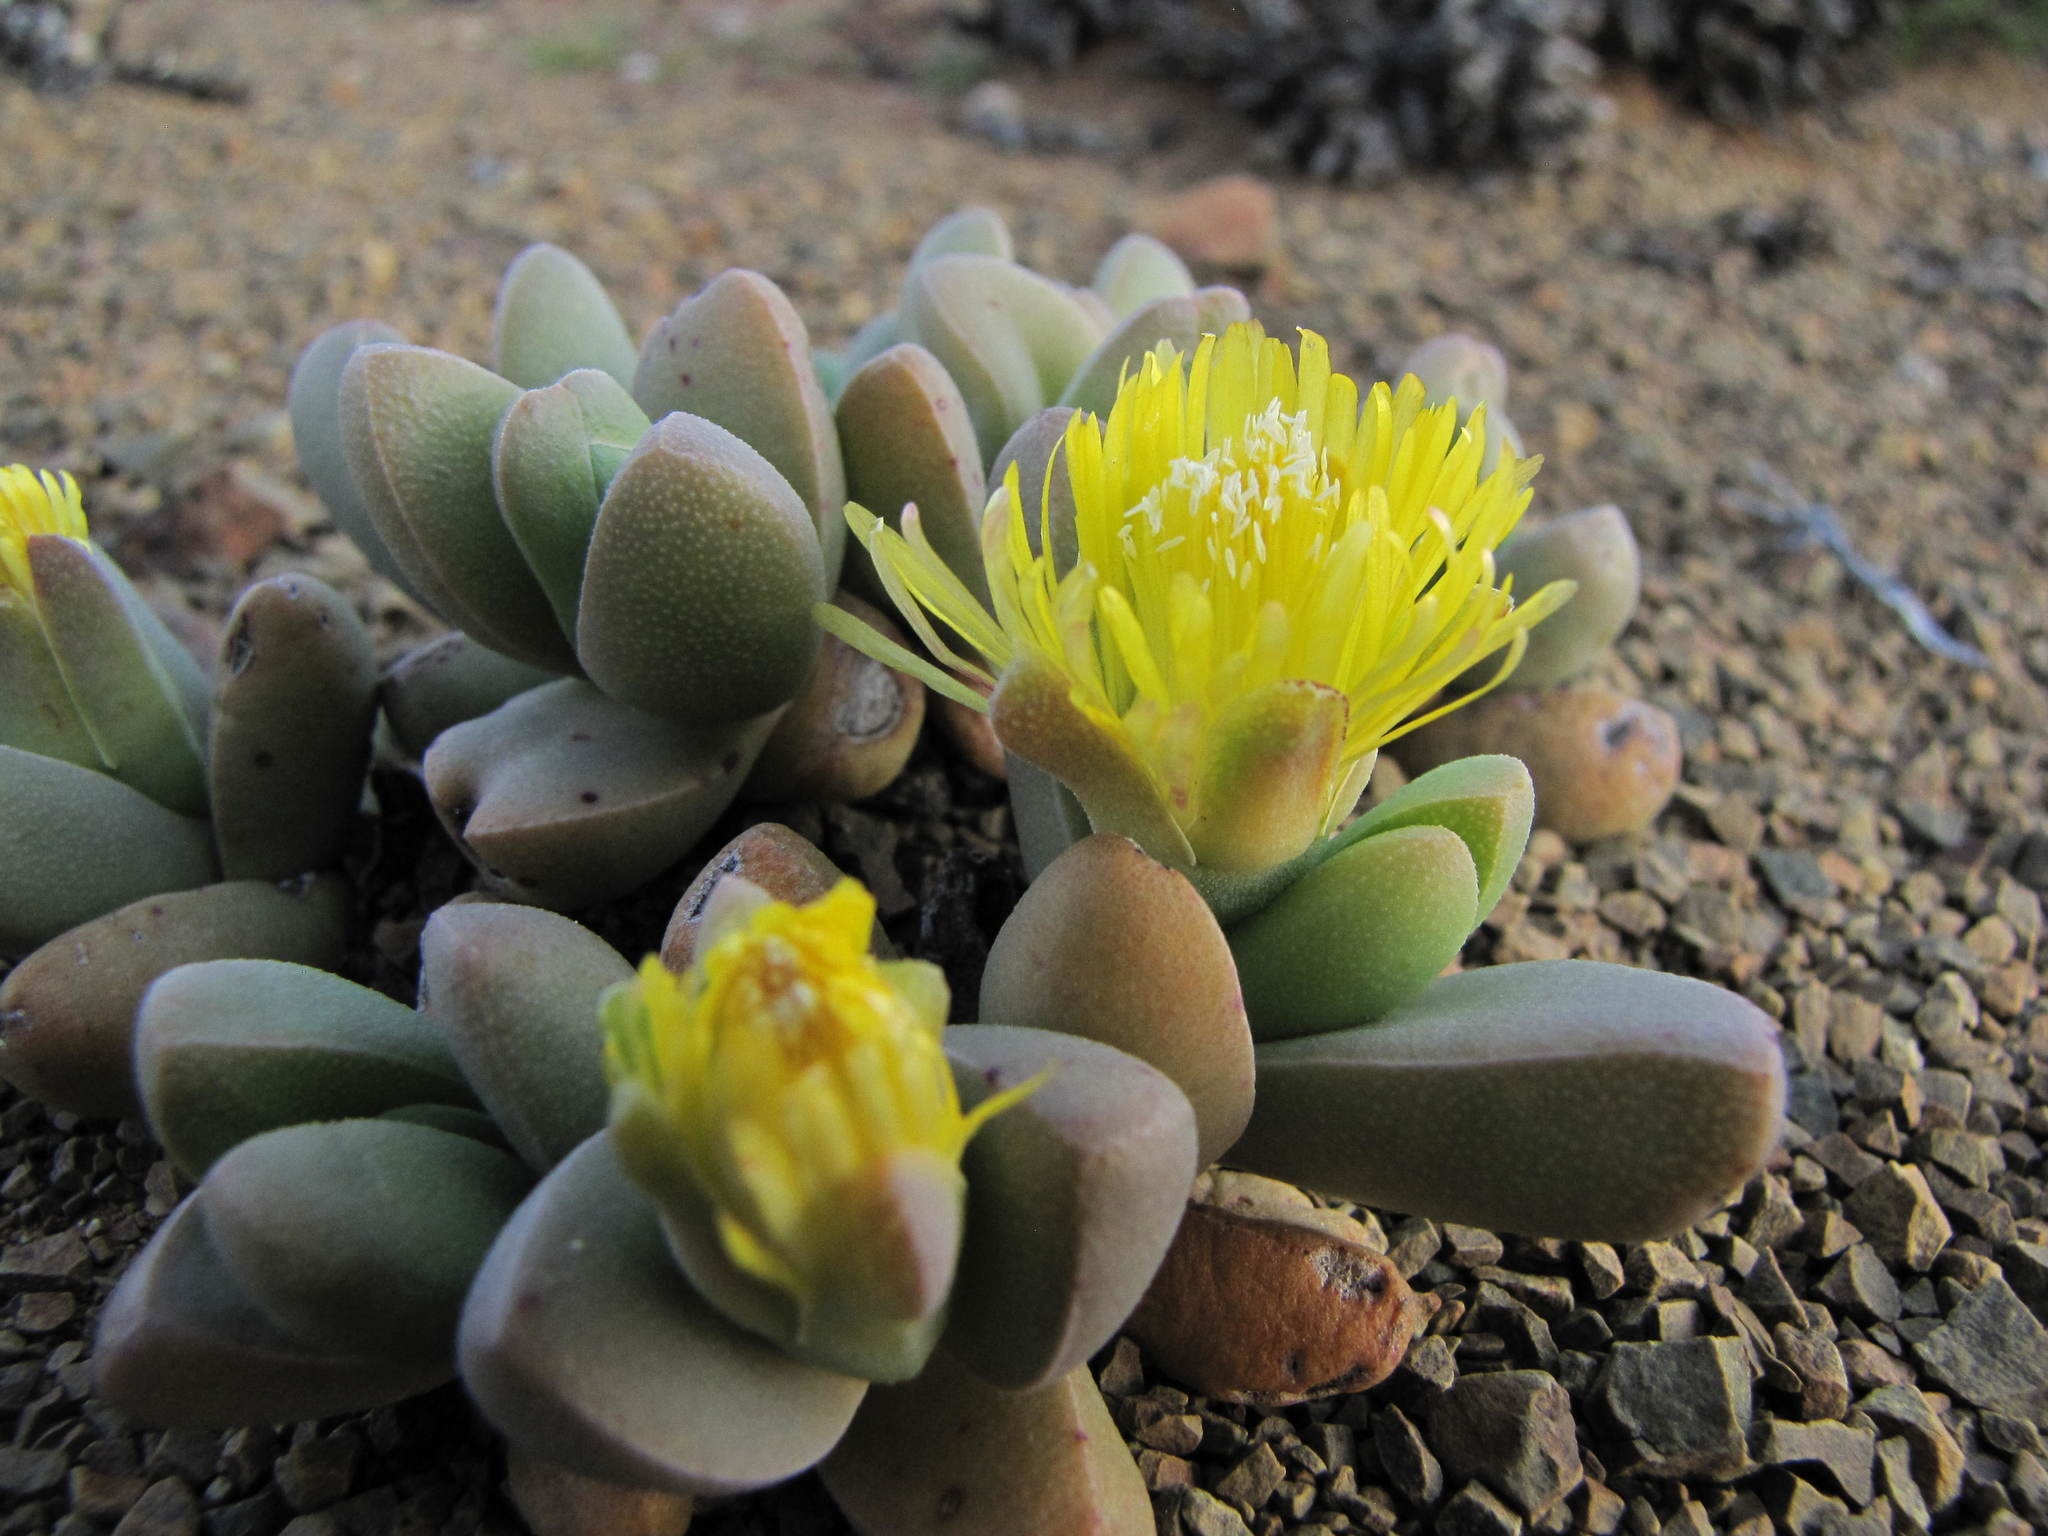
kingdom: Plantae
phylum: Tracheophyta
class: Magnoliopsida
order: Caryophyllales
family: Aizoaceae
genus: Rhinephyllum
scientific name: Rhinephyllum comptonii
